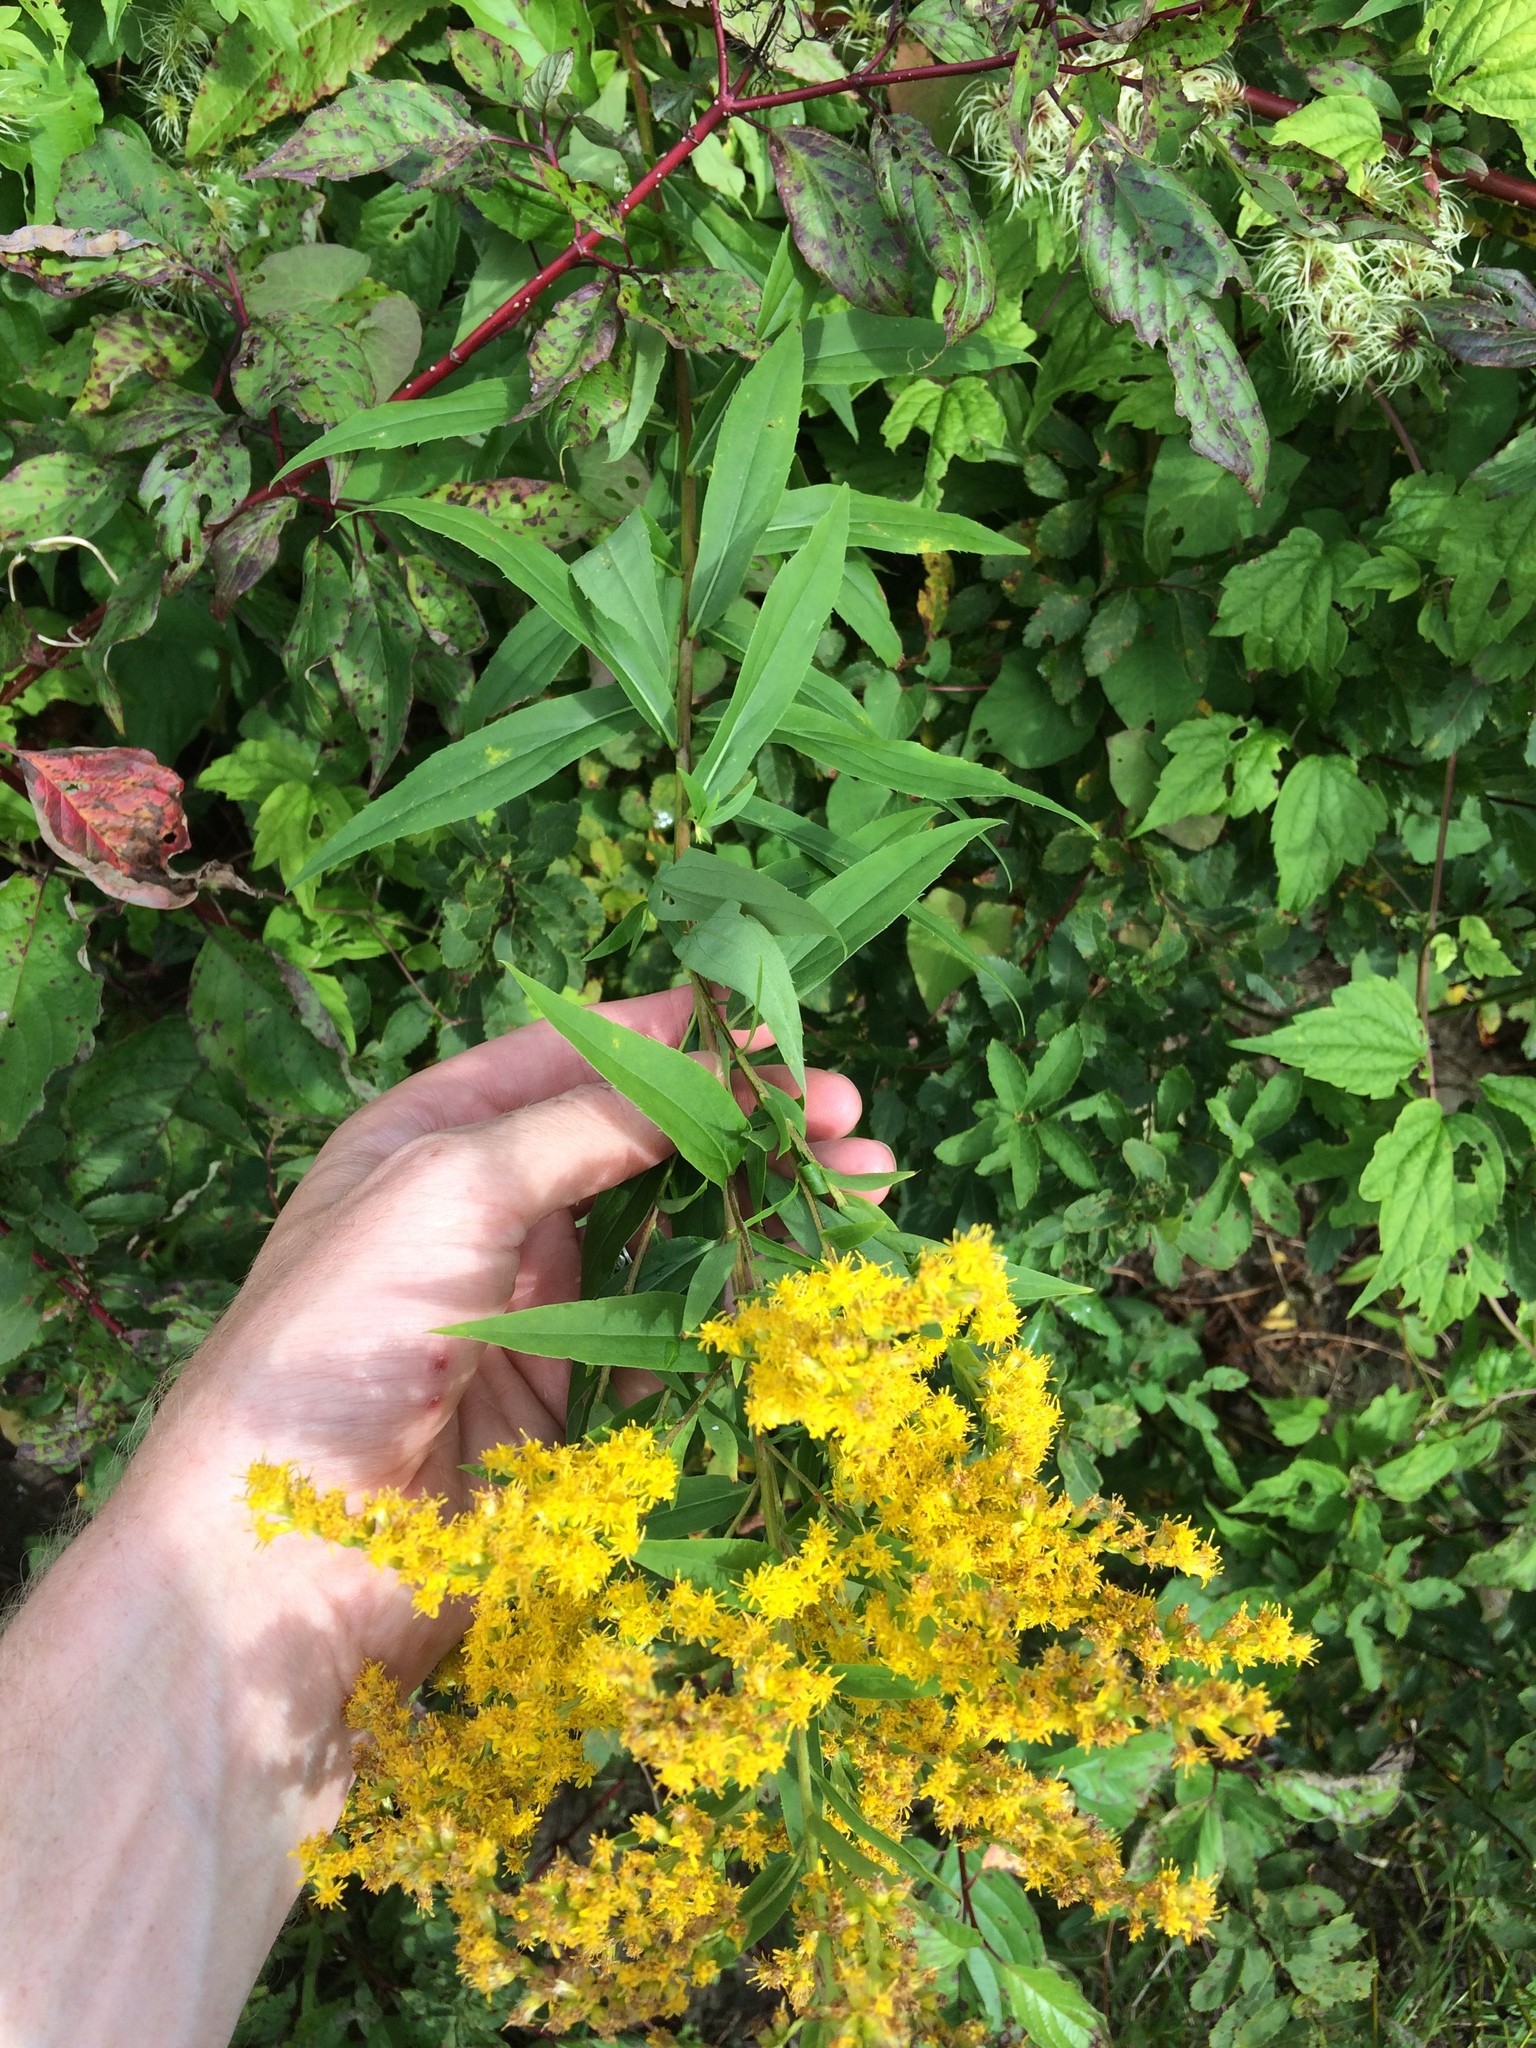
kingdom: Plantae
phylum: Tracheophyta
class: Magnoliopsida
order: Asterales
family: Asteraceae
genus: Solidago
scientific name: Solidago gigantea
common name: Giant goldenrod
